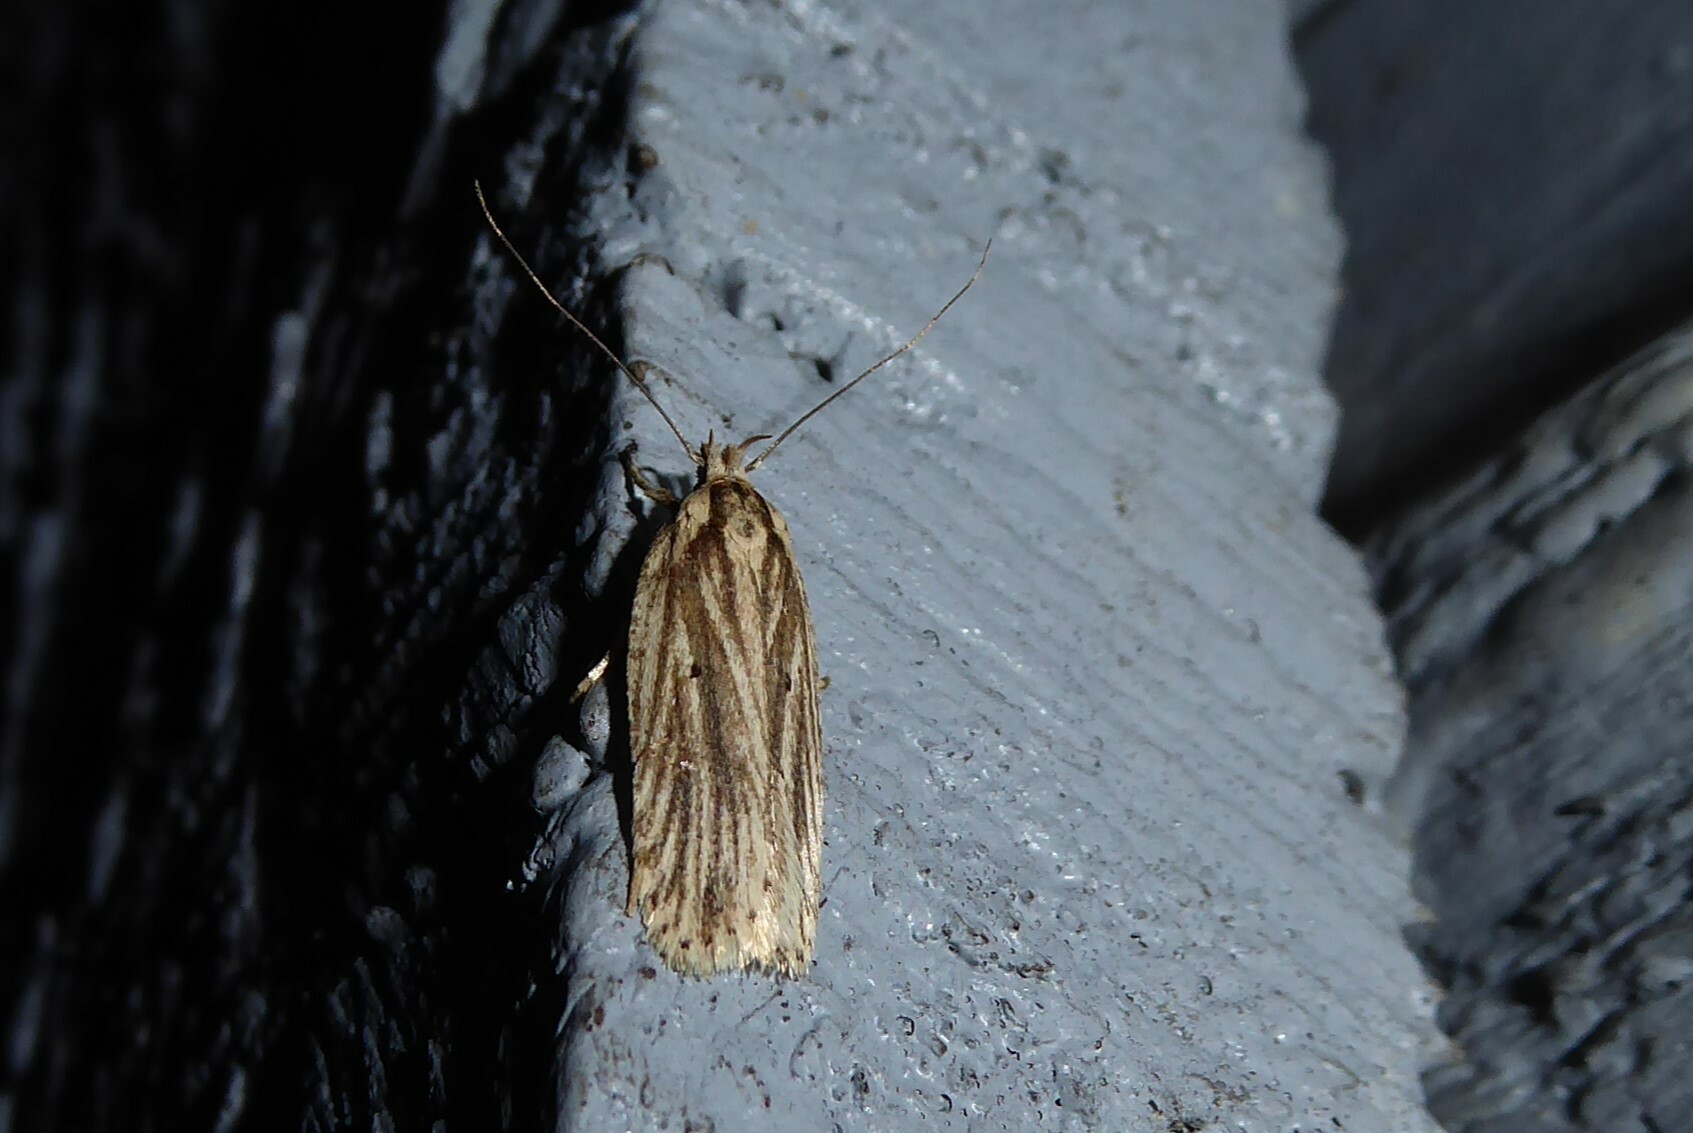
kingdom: Animalia
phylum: Arthropoda
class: Insecta
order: Lepidoptera
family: Depressariidae
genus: Agonopterix
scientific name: Agonopterix
